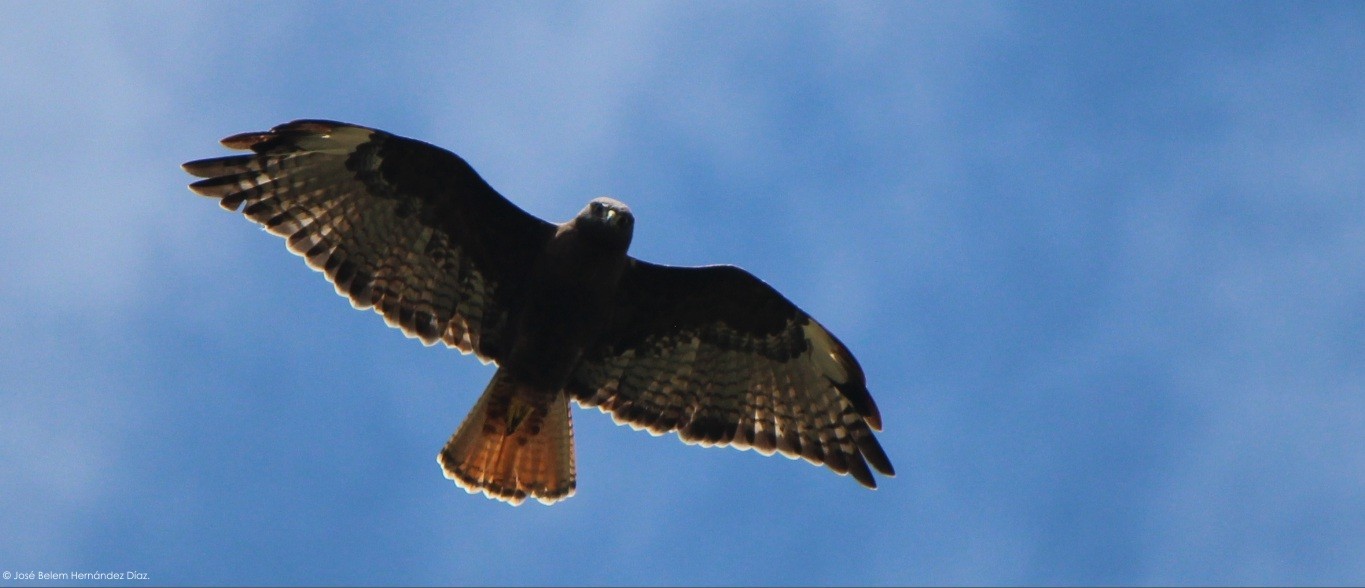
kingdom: Animalia
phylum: Chordata
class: Aves
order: Accipitriformes
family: Accipitridae
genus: Buteo
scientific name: Buteo jamaicensis
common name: Red-tailed hawk
